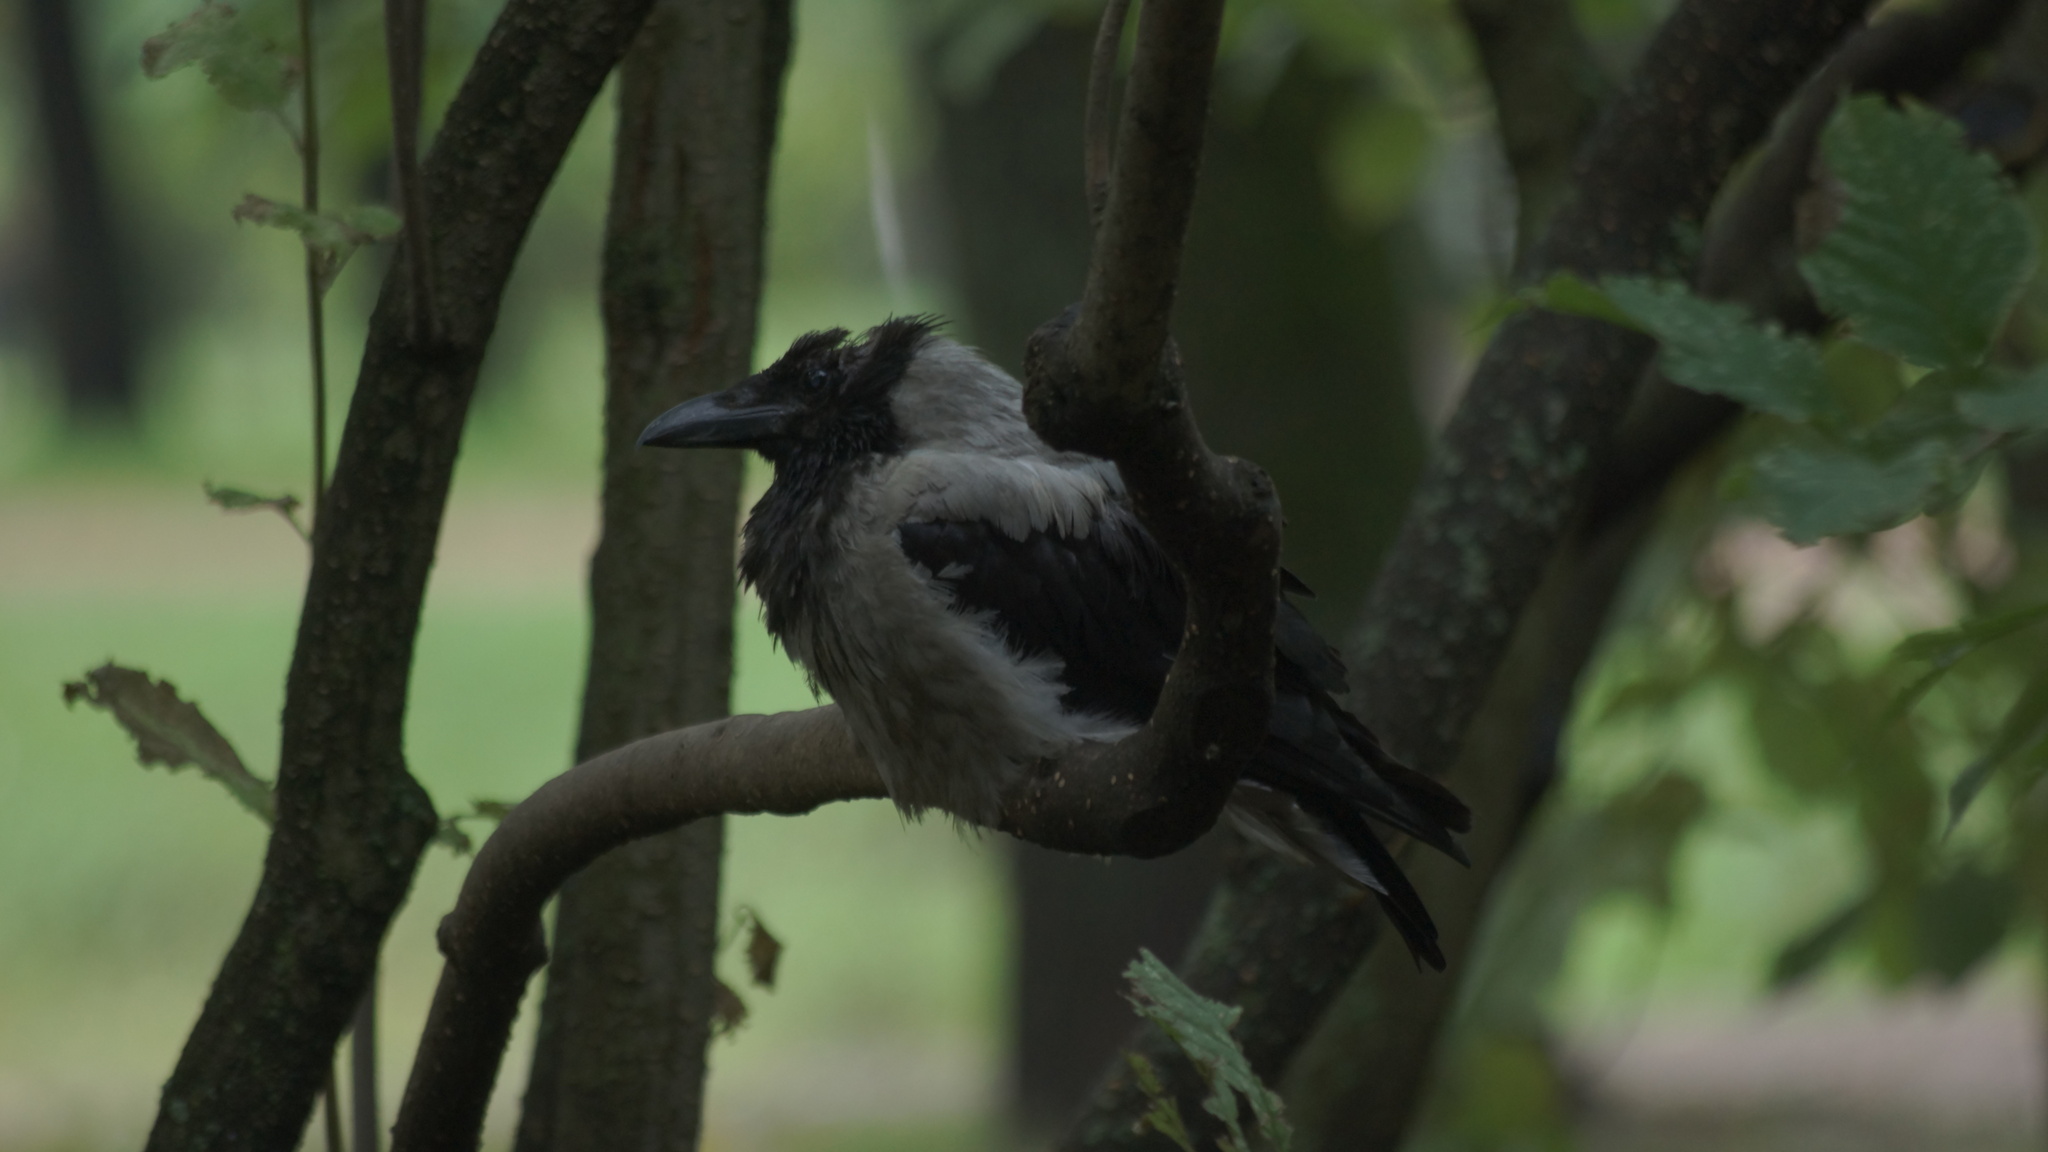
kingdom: Animalia
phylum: Chordata
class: Aves
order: Passeriformes
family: Corvidae
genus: Corvus
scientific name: Corvus cornix
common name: Hooded crow
